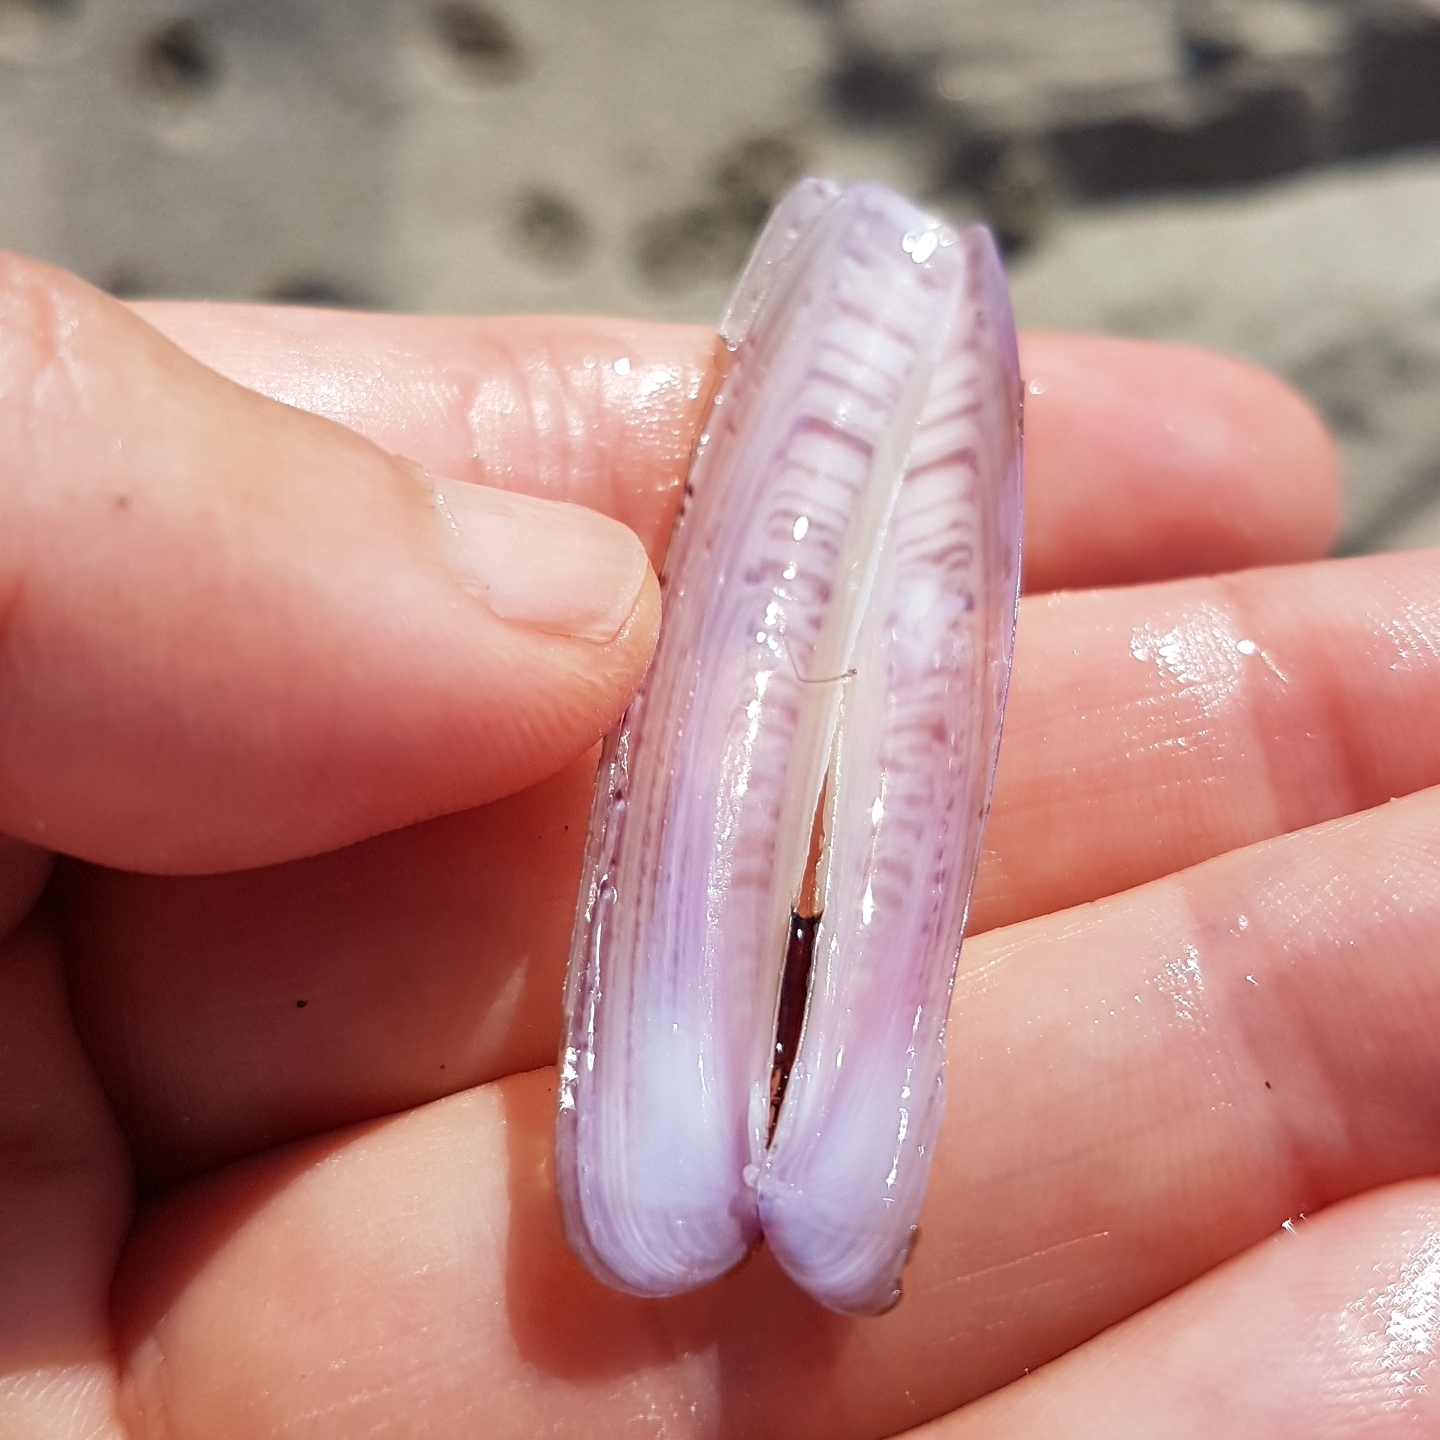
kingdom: Animalia
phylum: Mollusca
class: Bivalvia
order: Adapedonta
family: Pharidae
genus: Ensis
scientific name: Ensis ensis
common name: Common razor shell
